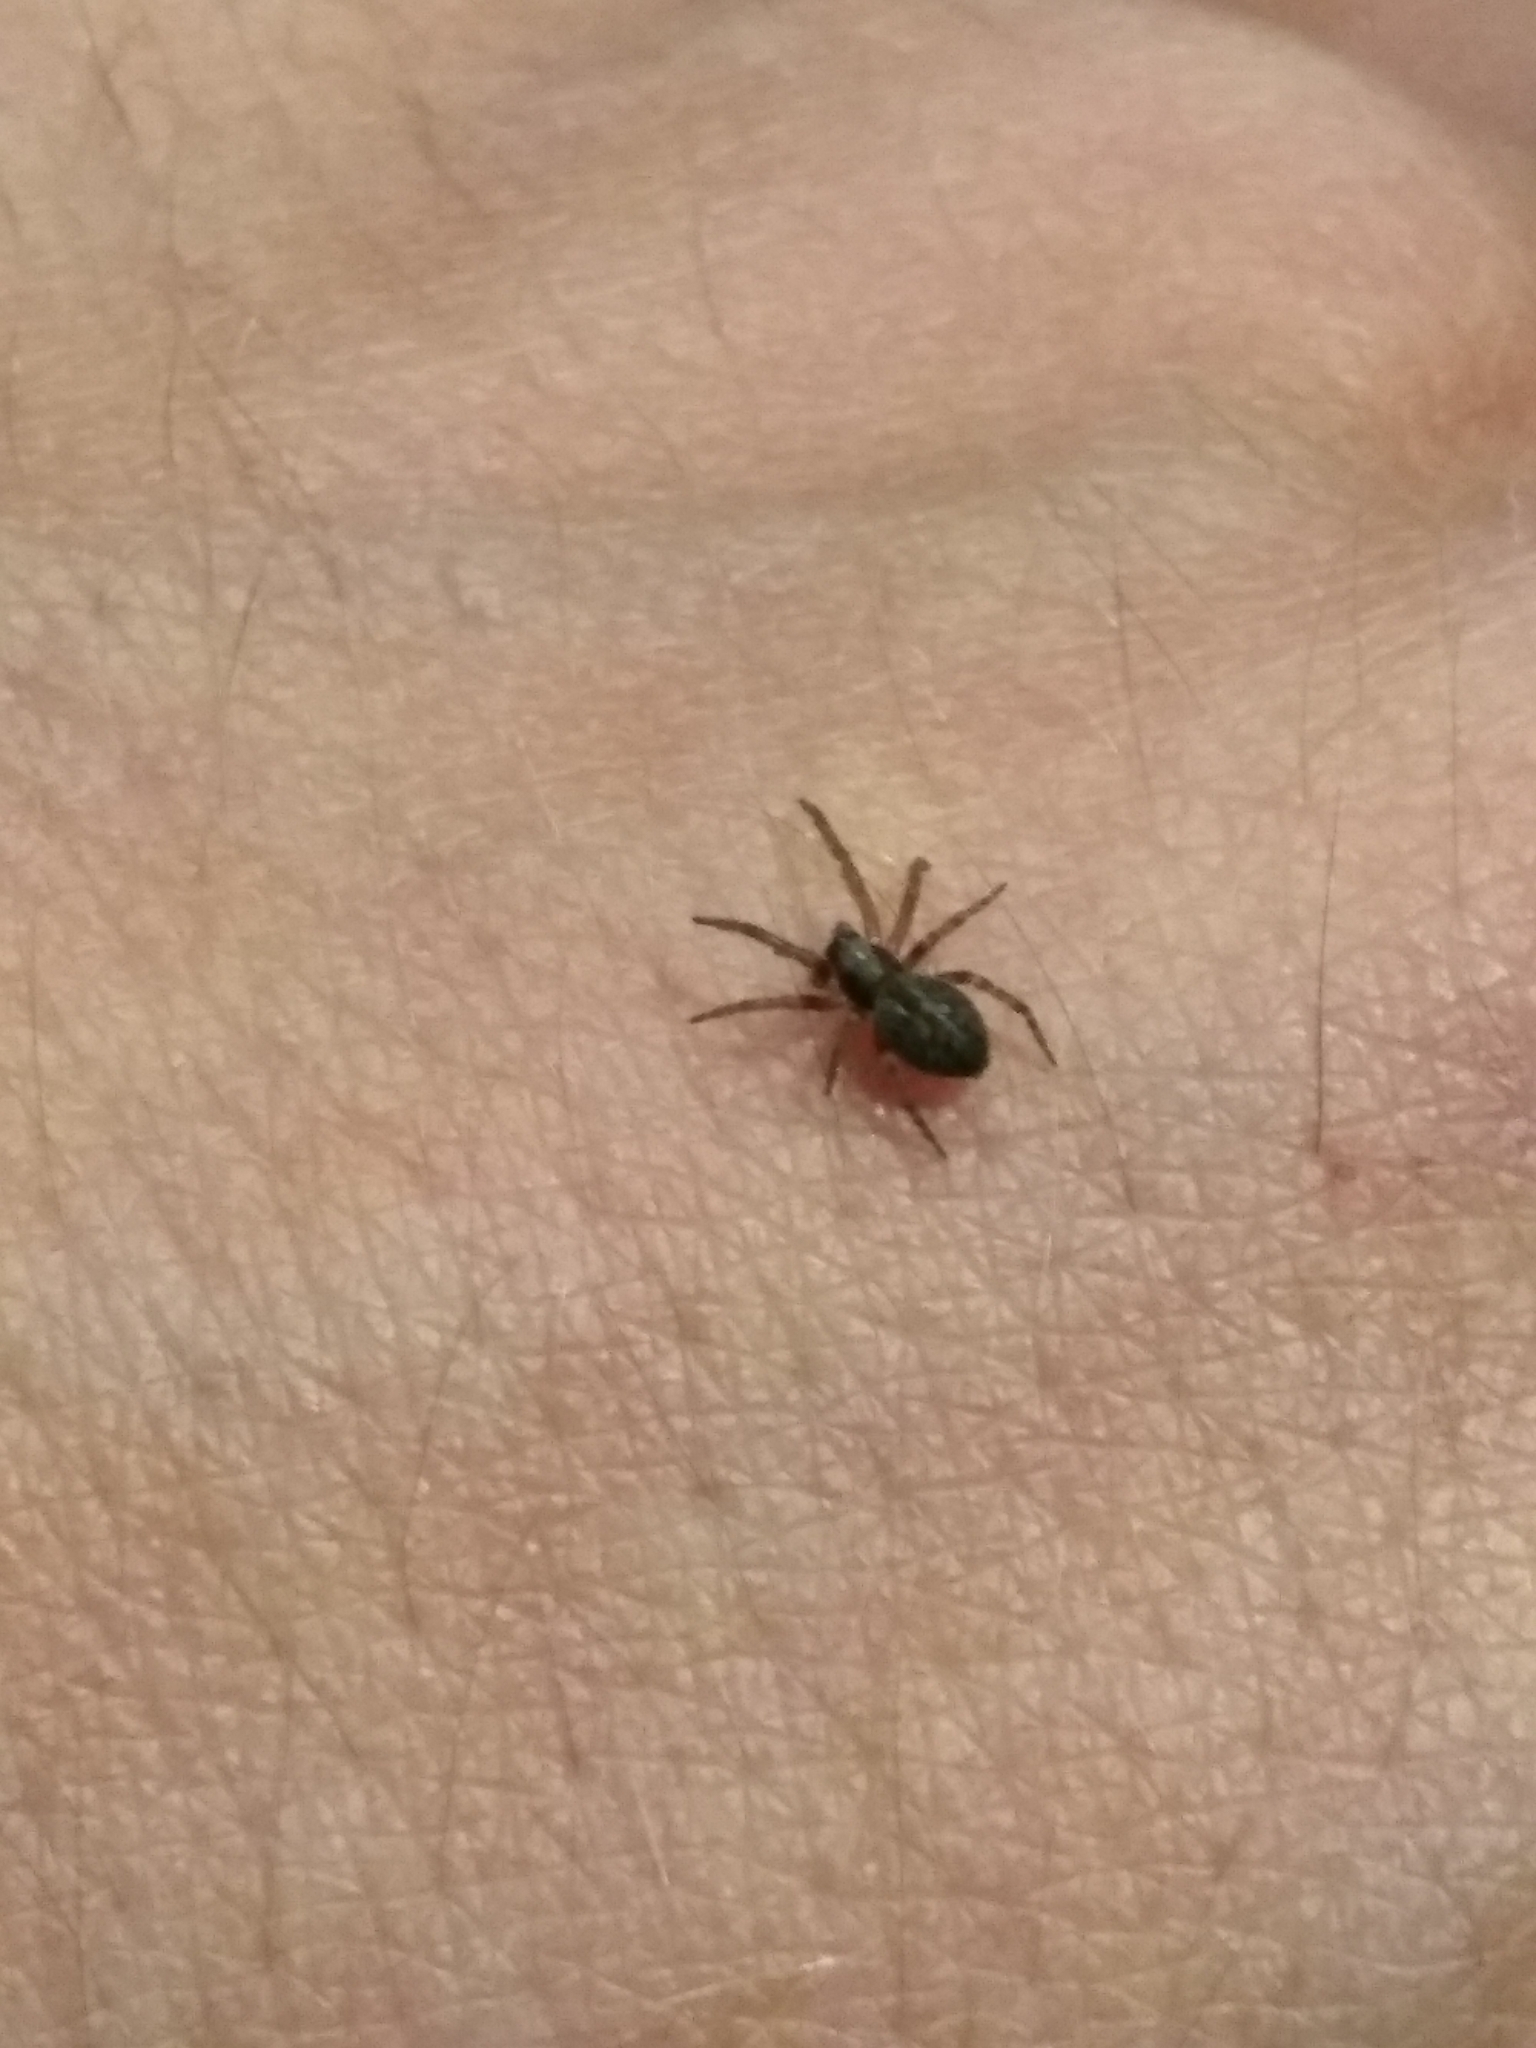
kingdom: Animalia
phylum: Arthropoda
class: Arachnida
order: Araneae
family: Desidae
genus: Badumna
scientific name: Badumna longinqua
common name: Gray house spider
